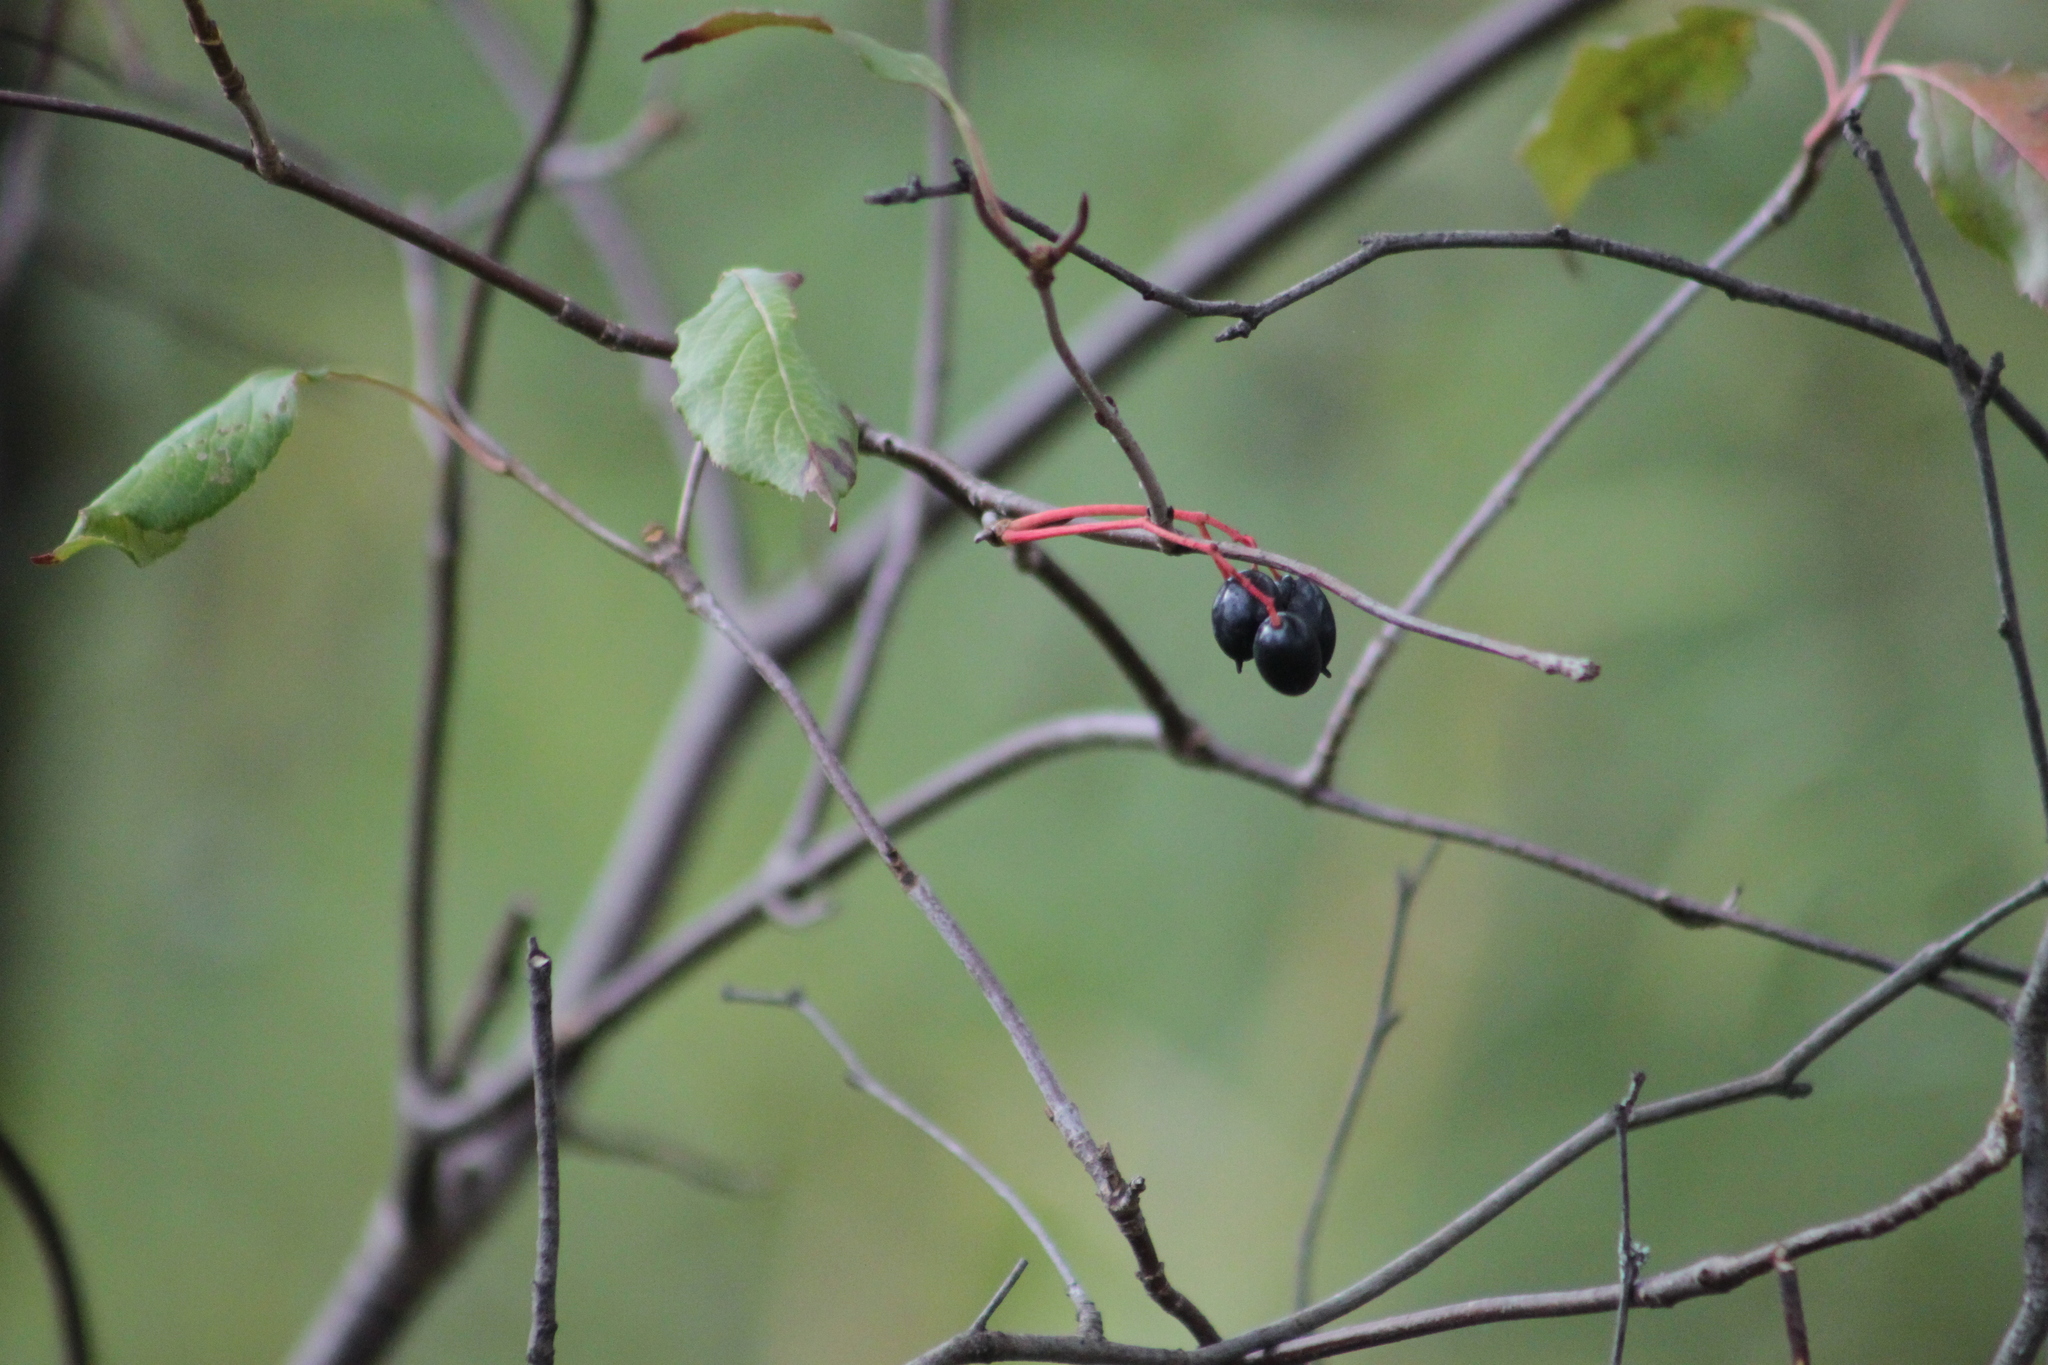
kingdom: Plantae
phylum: Tracheophyta
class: Magnoliopsida
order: Dipsacales
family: Viburnaceae
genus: Viburnum
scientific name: Viburnum lentago
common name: Black haw
